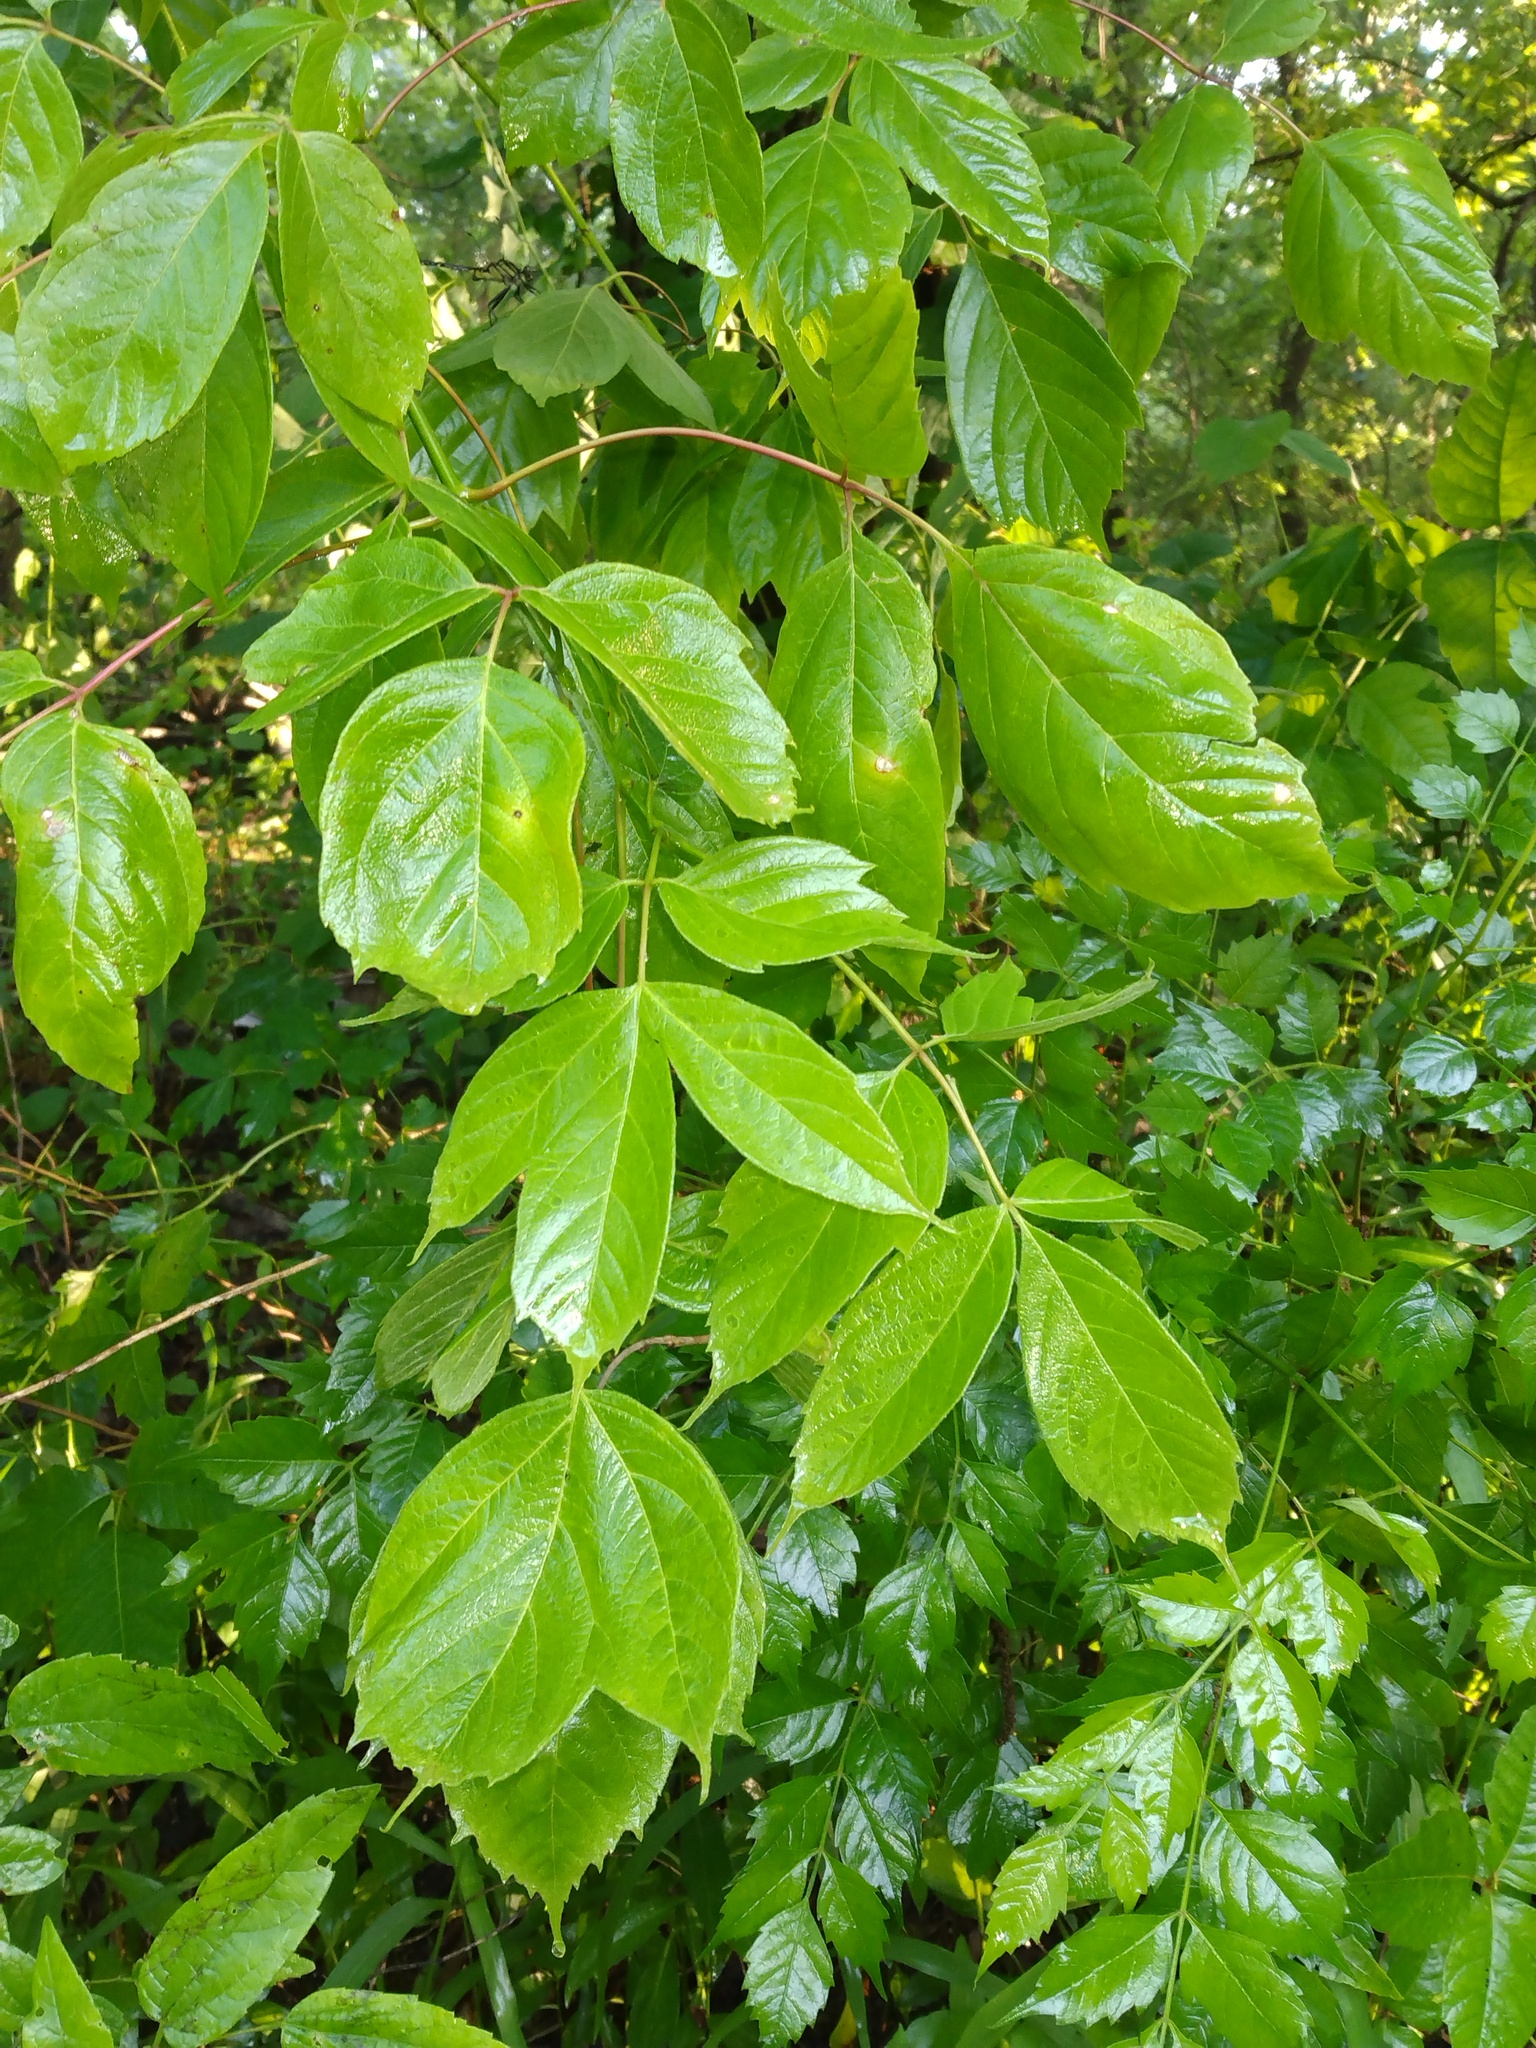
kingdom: Plantae
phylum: Tracheophyta
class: Magnoliopsida
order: Sapindales
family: Sapindaceae
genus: Acer
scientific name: Acer negundo
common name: Ashleaf maple
